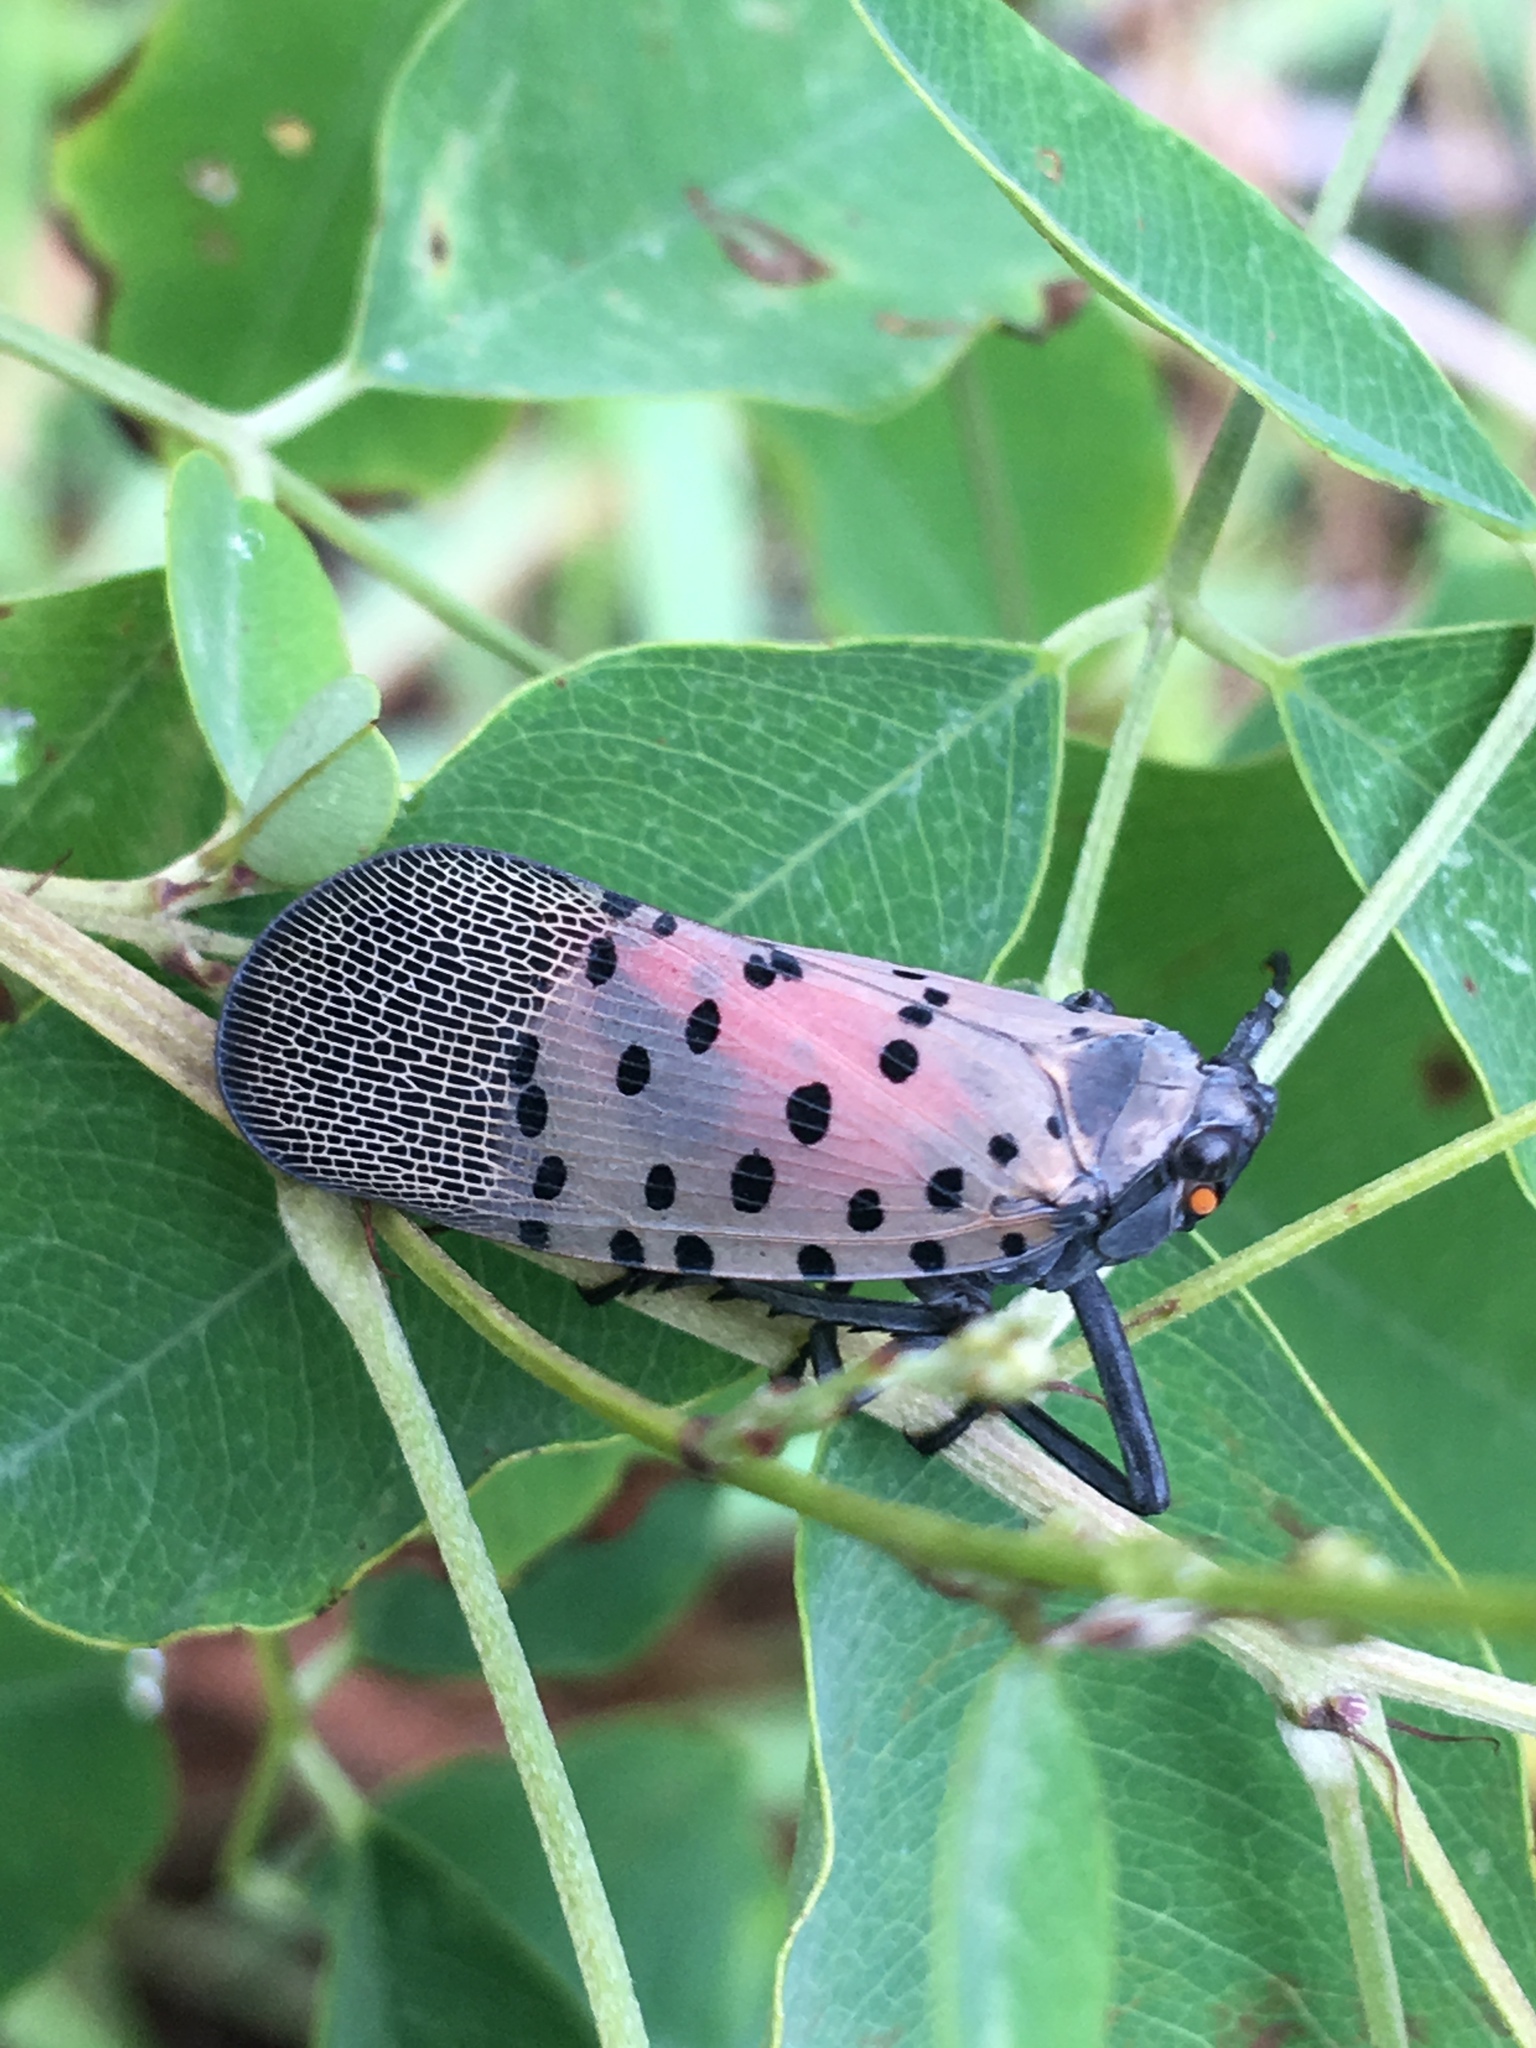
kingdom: Animalia
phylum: Arthropoda
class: Insecta
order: Hemiptera
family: Fulgoridae
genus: Lycorma
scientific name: Lycorma delicatula
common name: Spotted lanternfly
